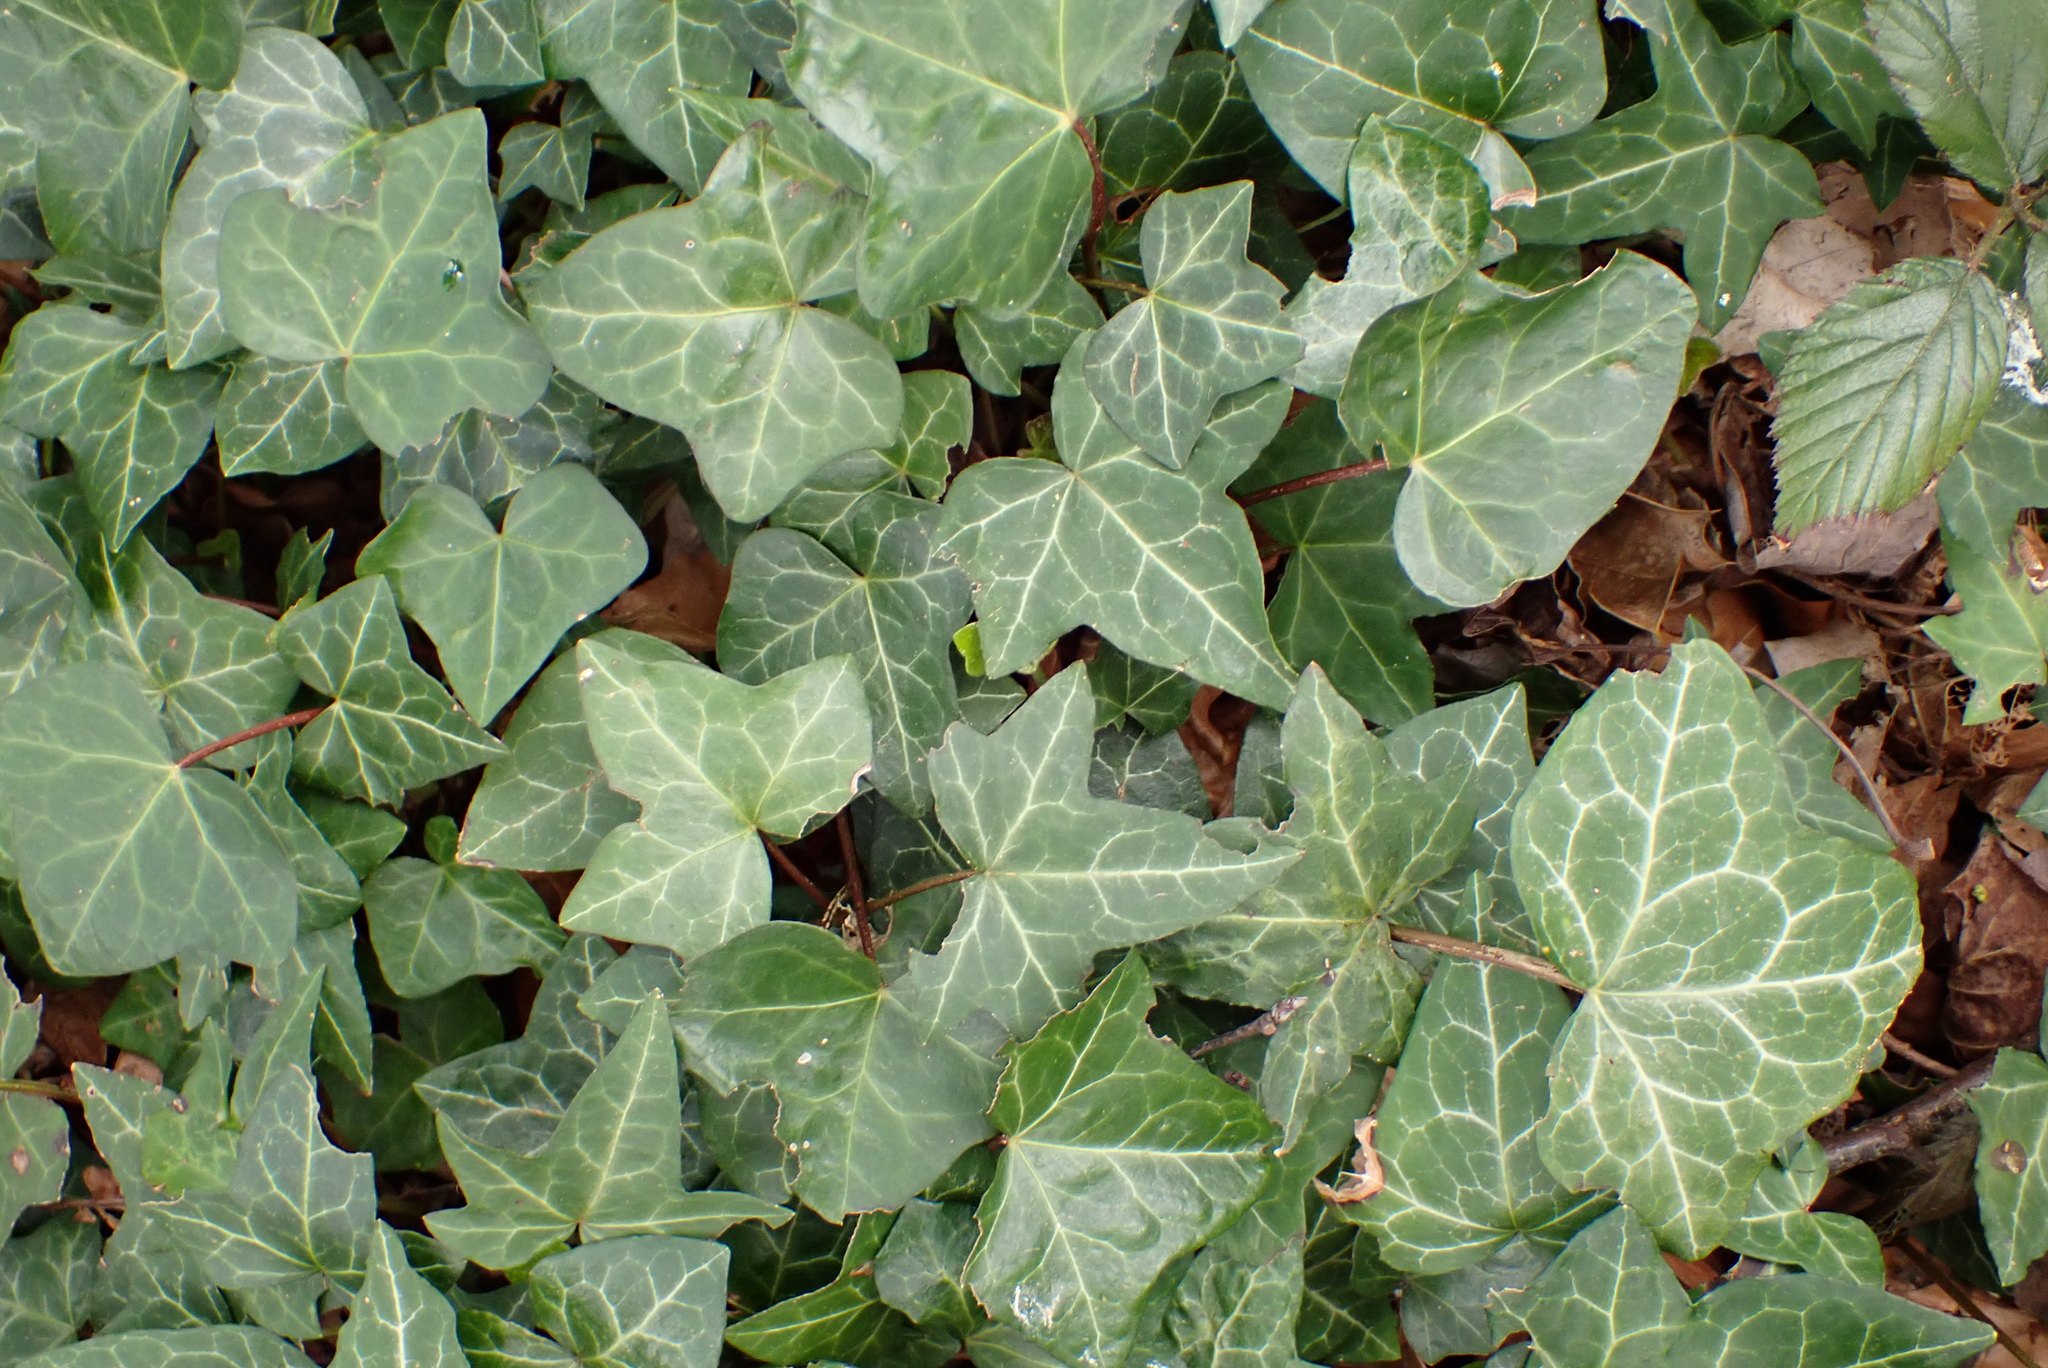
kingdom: Plantae
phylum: Tracheophyta
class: Magnoliopsida
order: Apiales
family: Araliaceae
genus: Hedera
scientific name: Hedera helix
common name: Ivy
